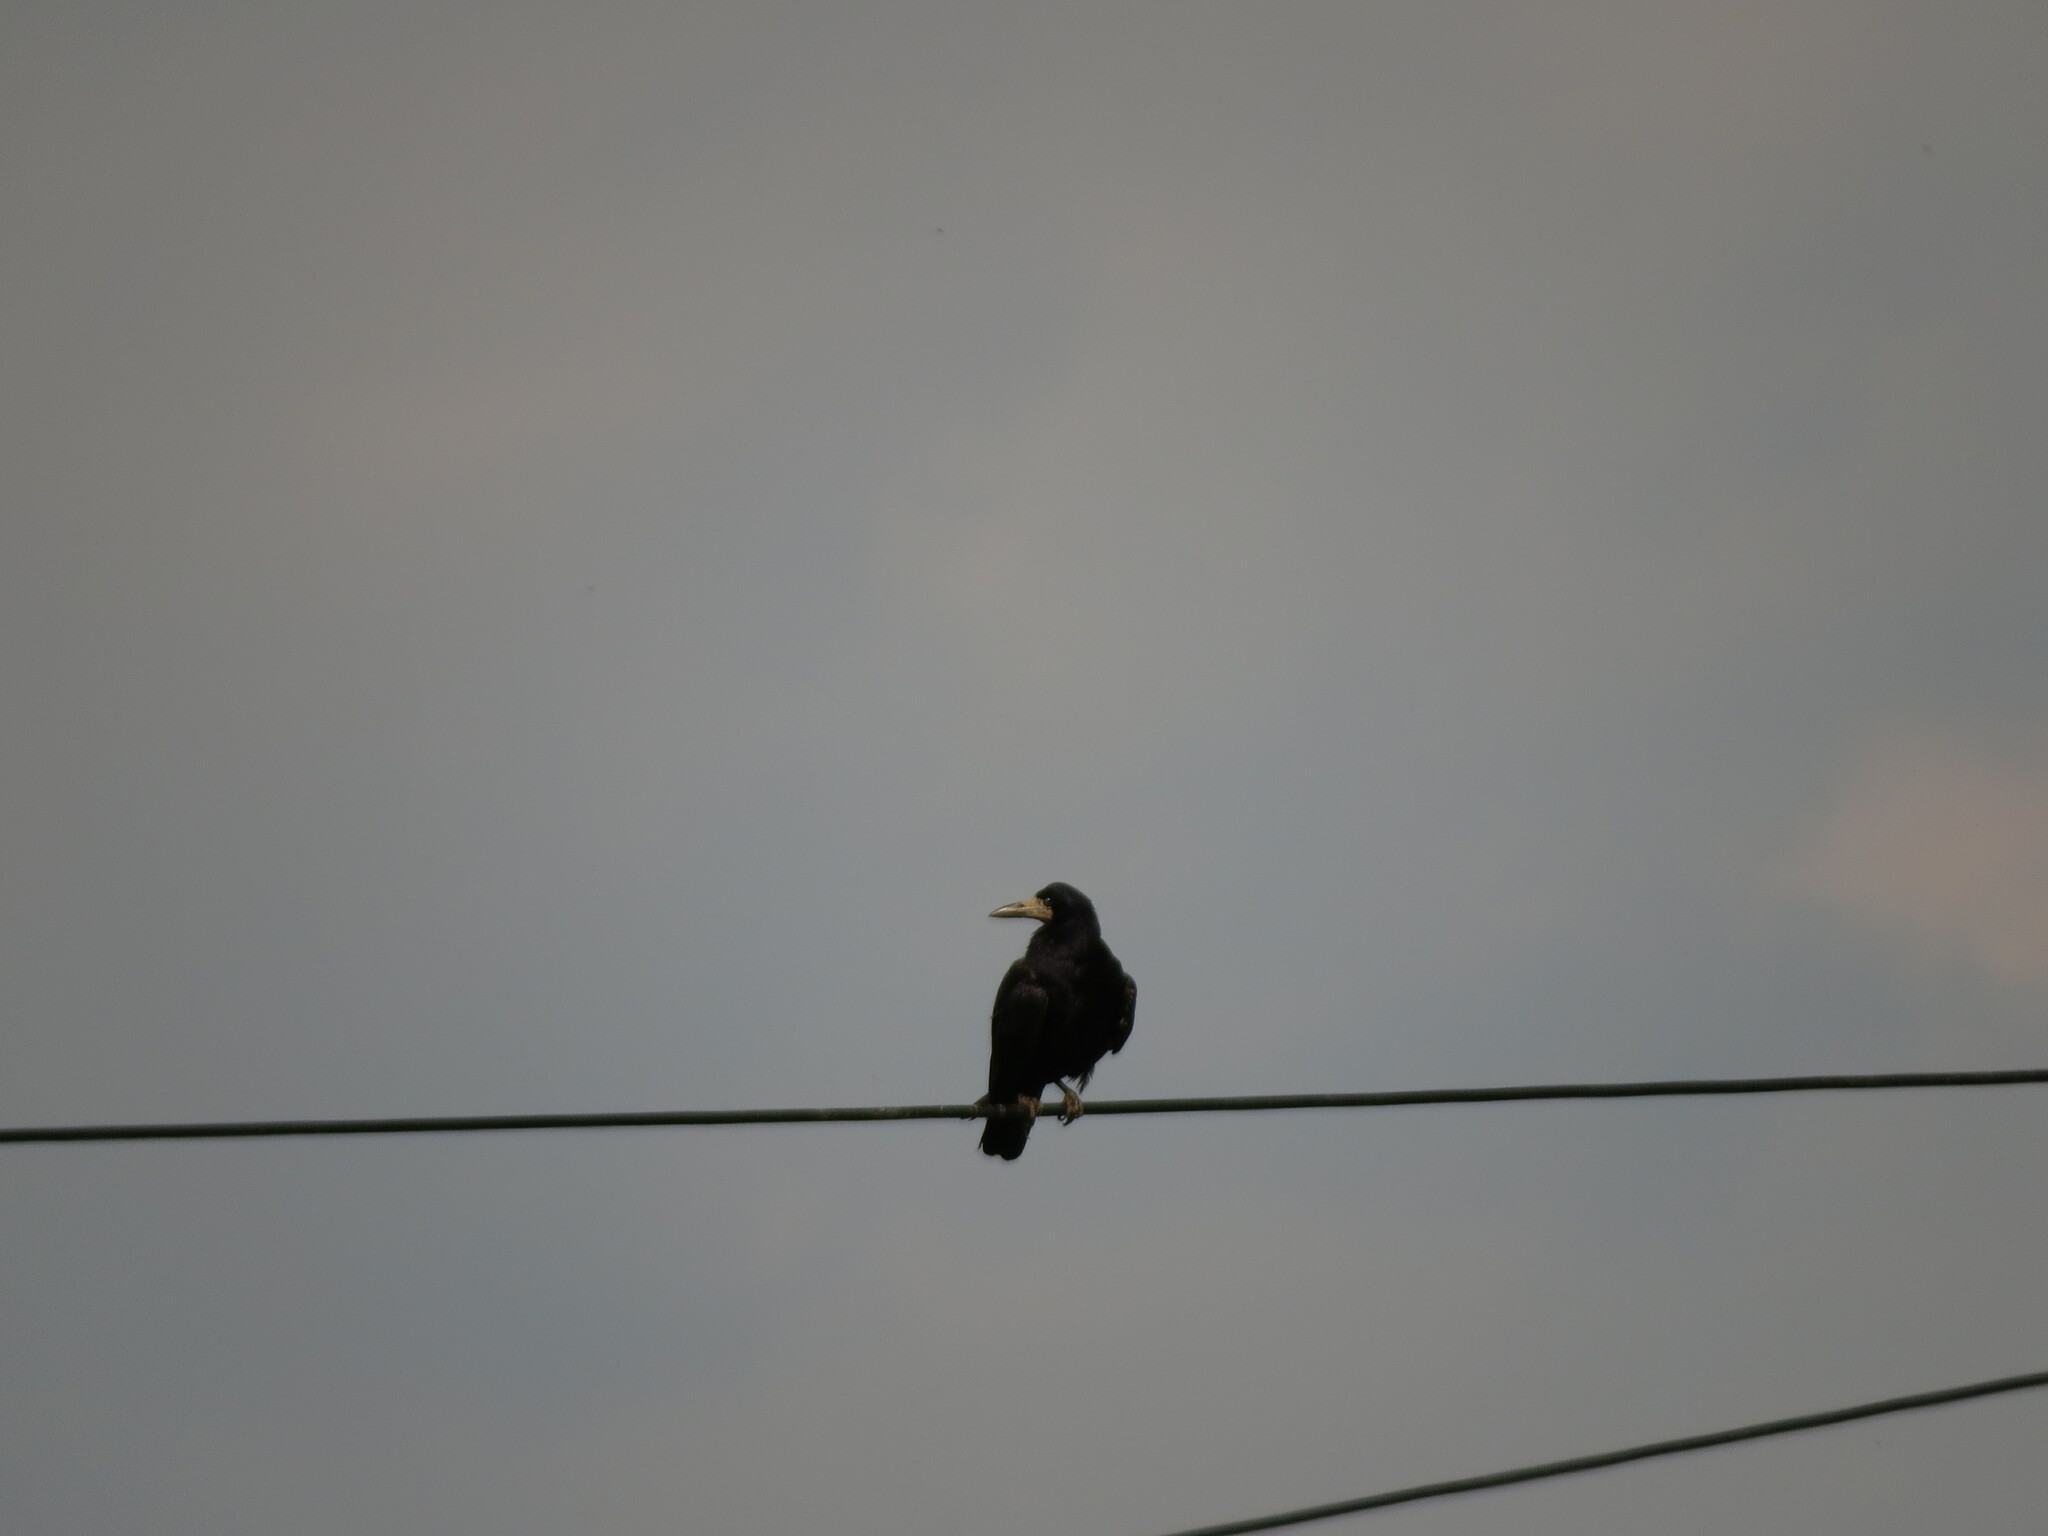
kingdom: Animalia
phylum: Chordata
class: Aves
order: Passeriformes
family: Corvidae
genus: Corvus
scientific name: Corvus frugilegus
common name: Rook
